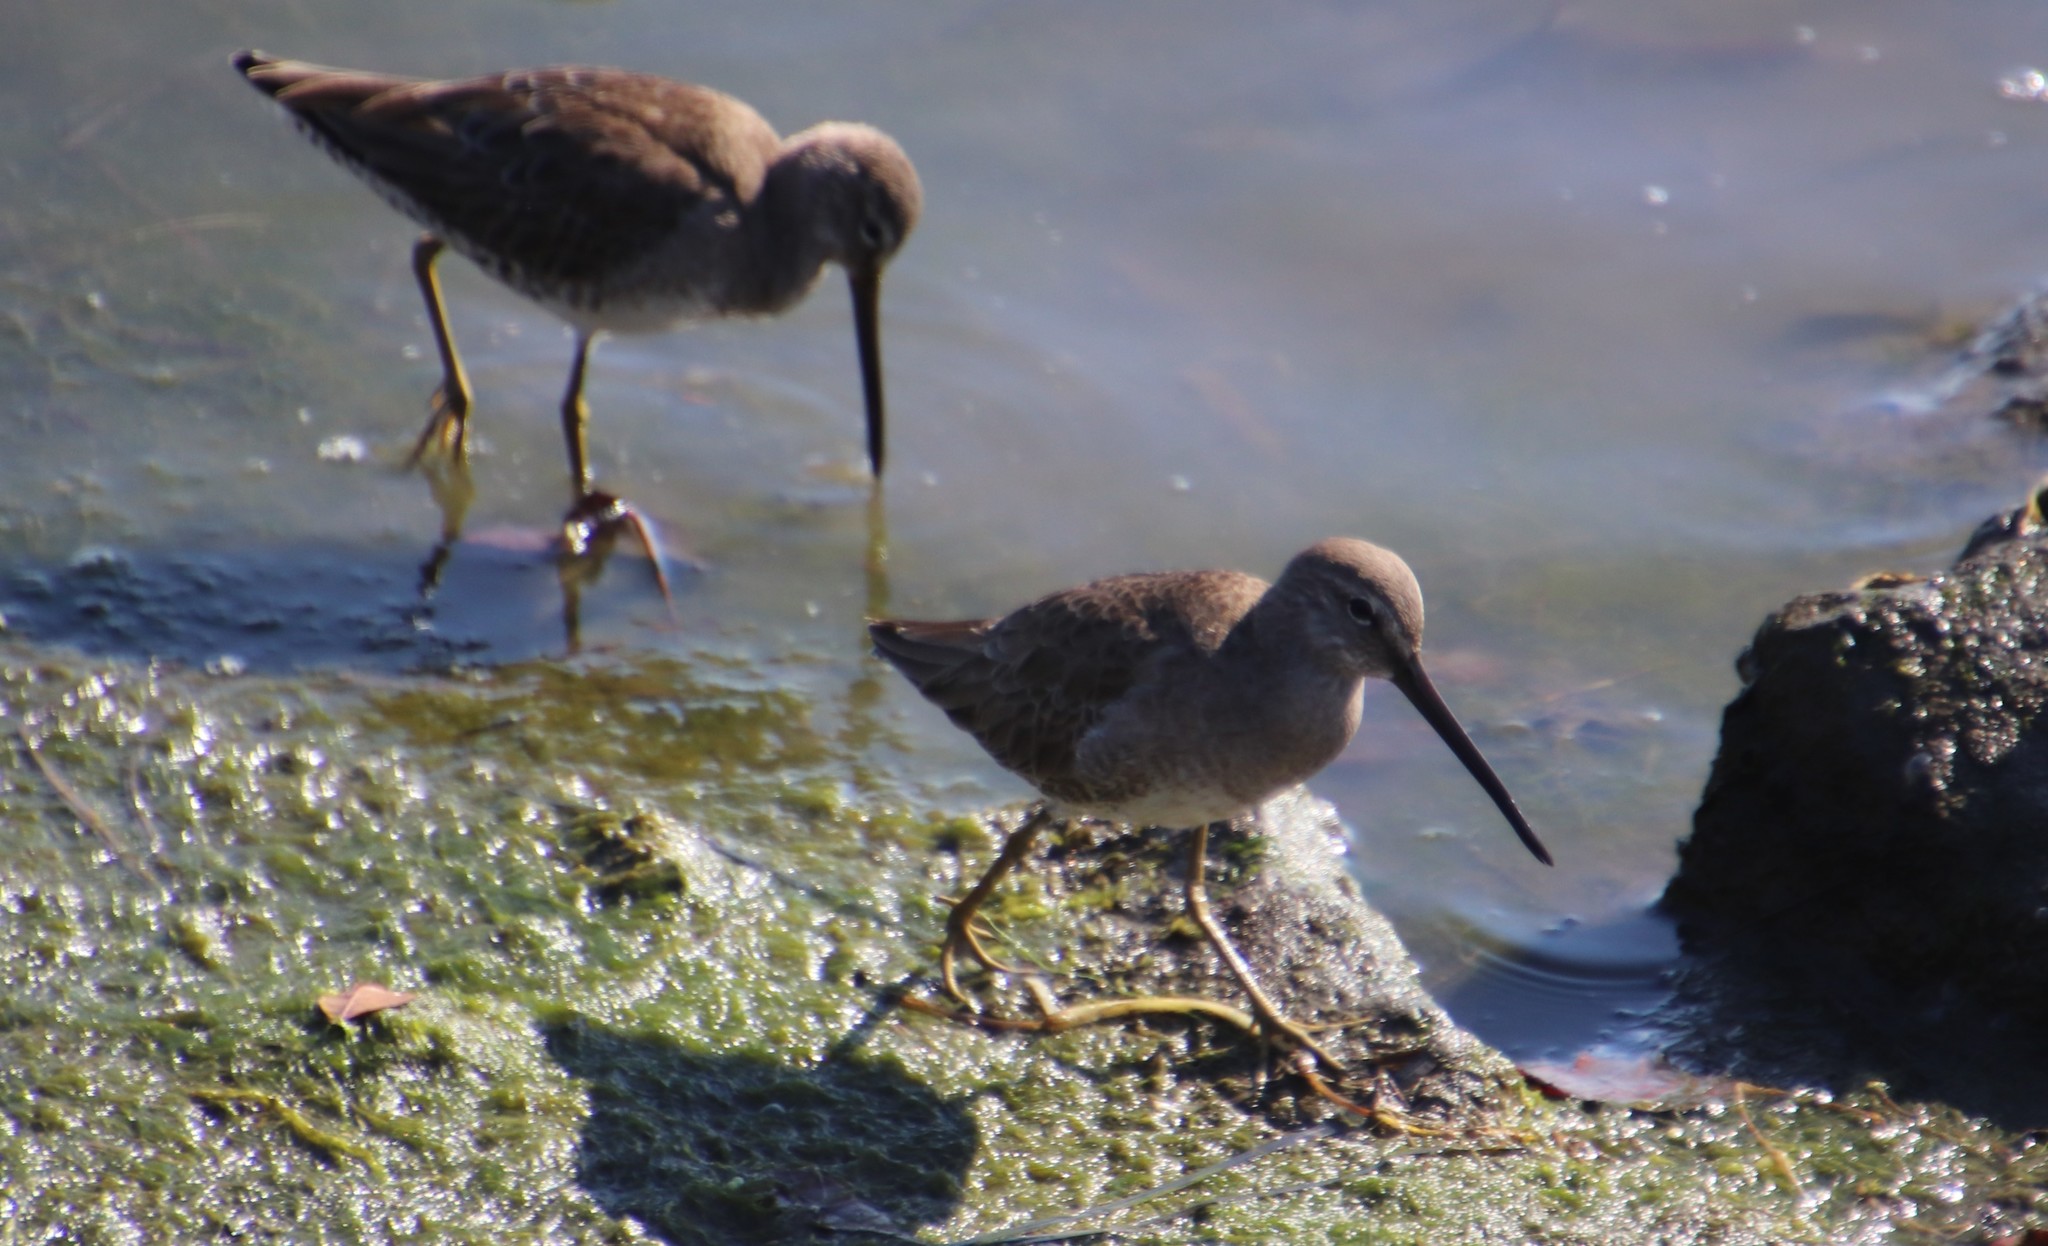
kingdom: Animalia
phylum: Chordata
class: Aves
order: Charadriiformes
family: Scolopacidae
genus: Limnodromus
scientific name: Limnodromus scolopaceus
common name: Long-billed dowitcher
